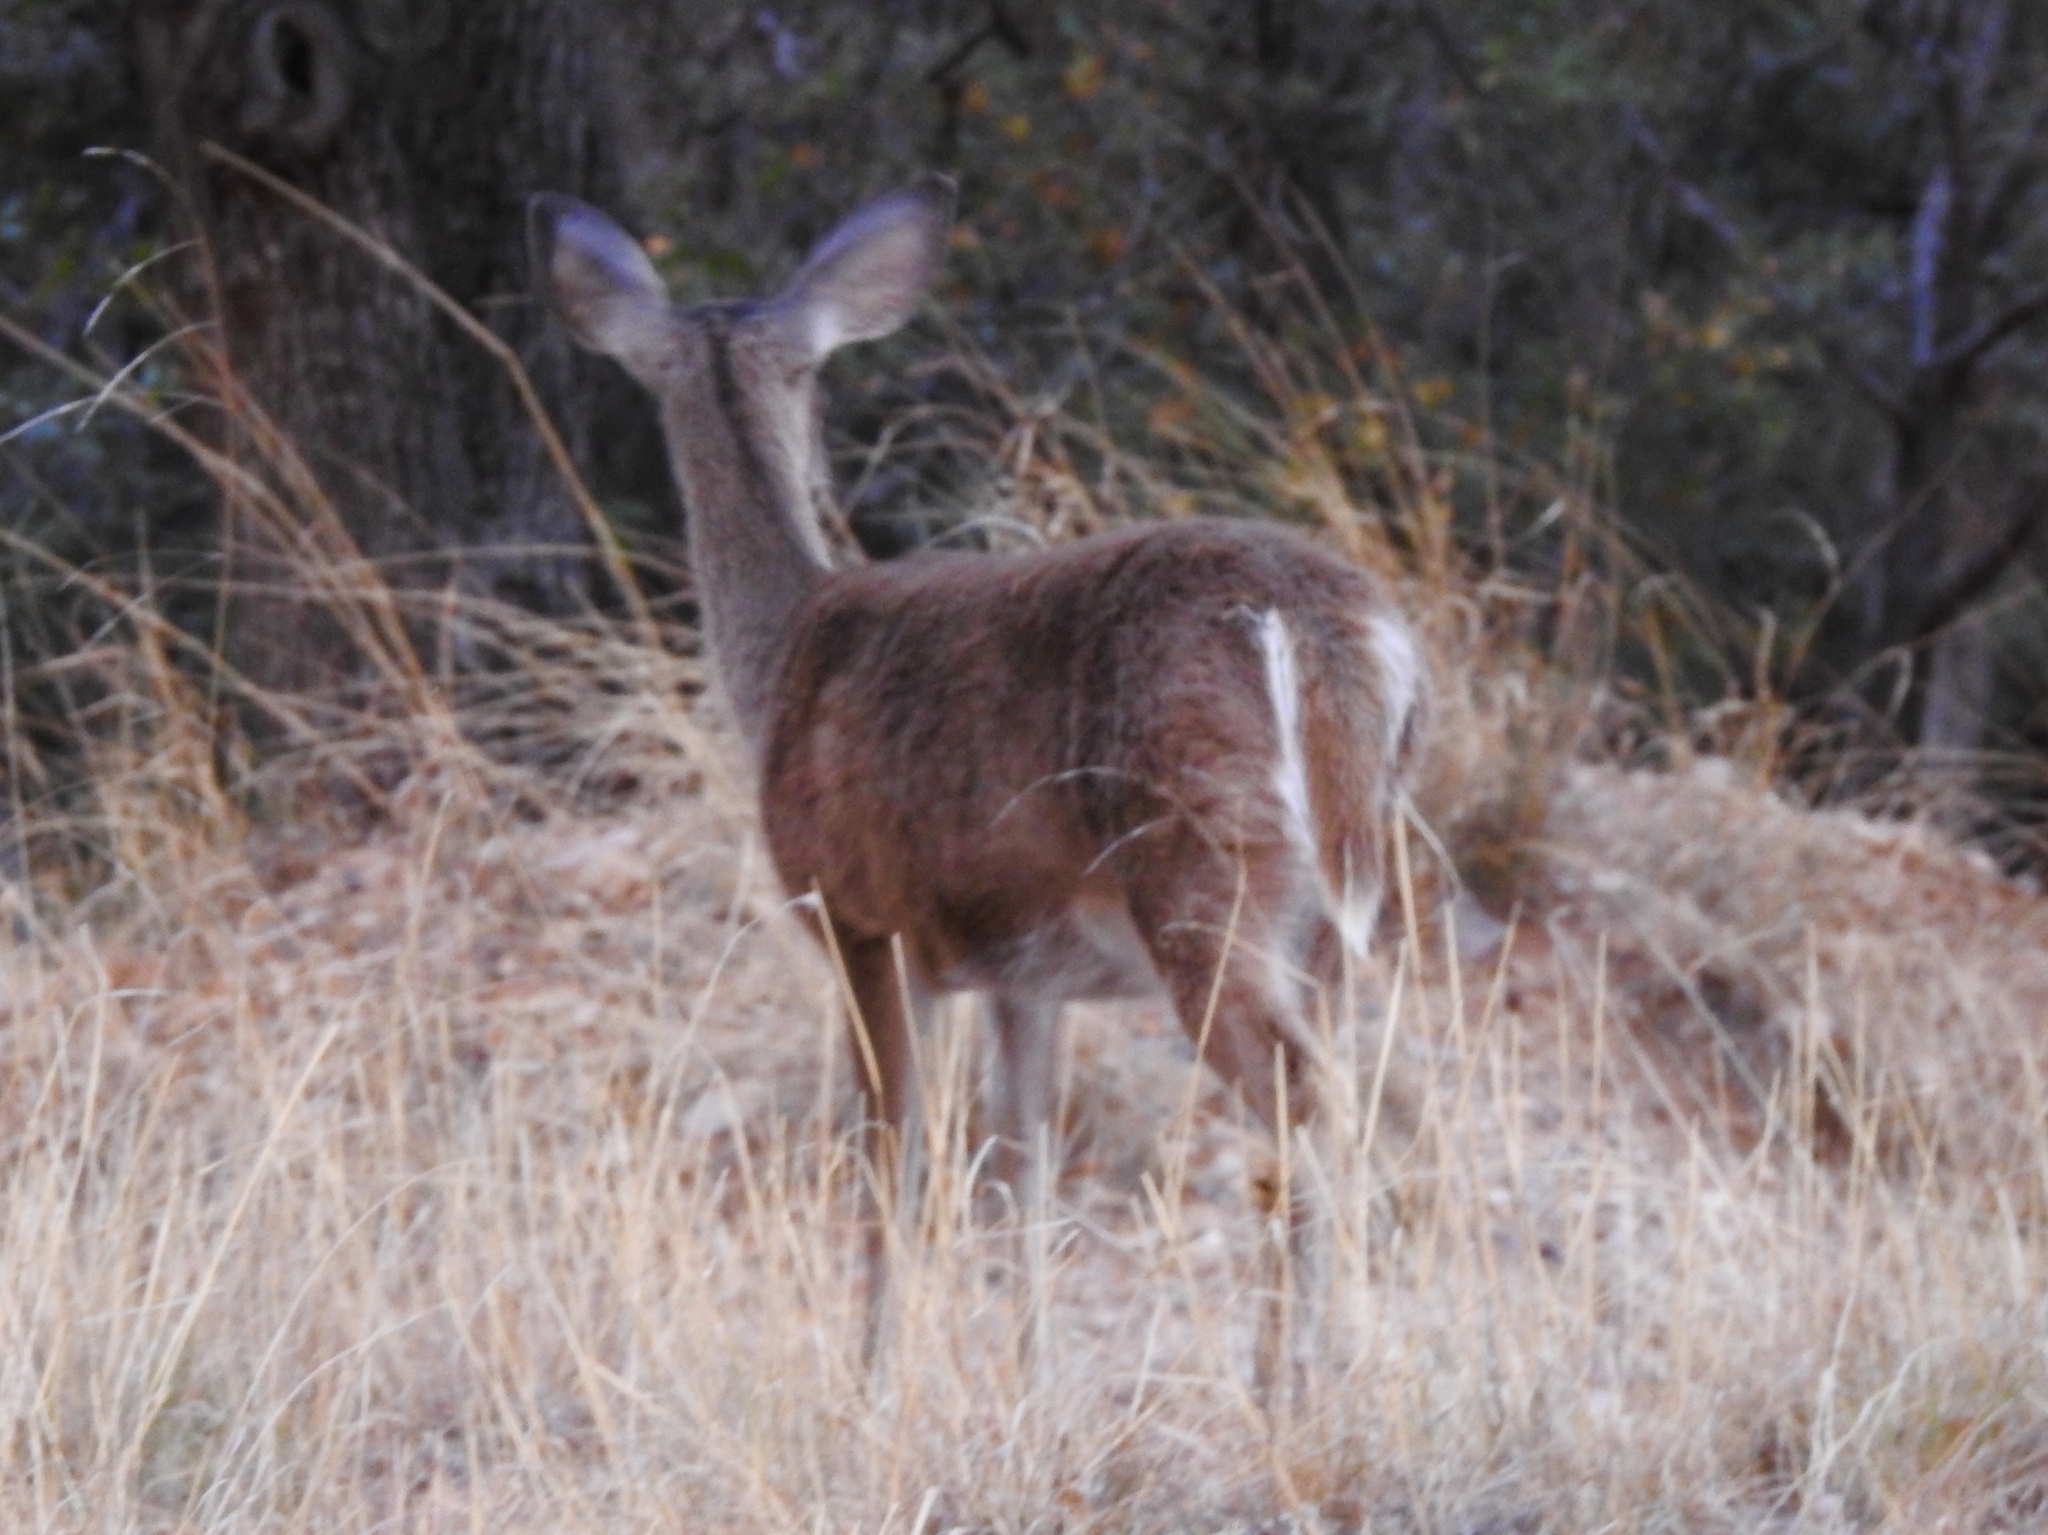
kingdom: Animalia
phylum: Chordata
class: Mammalia
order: Artiodactyla
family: Cervidae
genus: Odocoileus
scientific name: Odocoileus virginianus
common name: White-tailed deer
